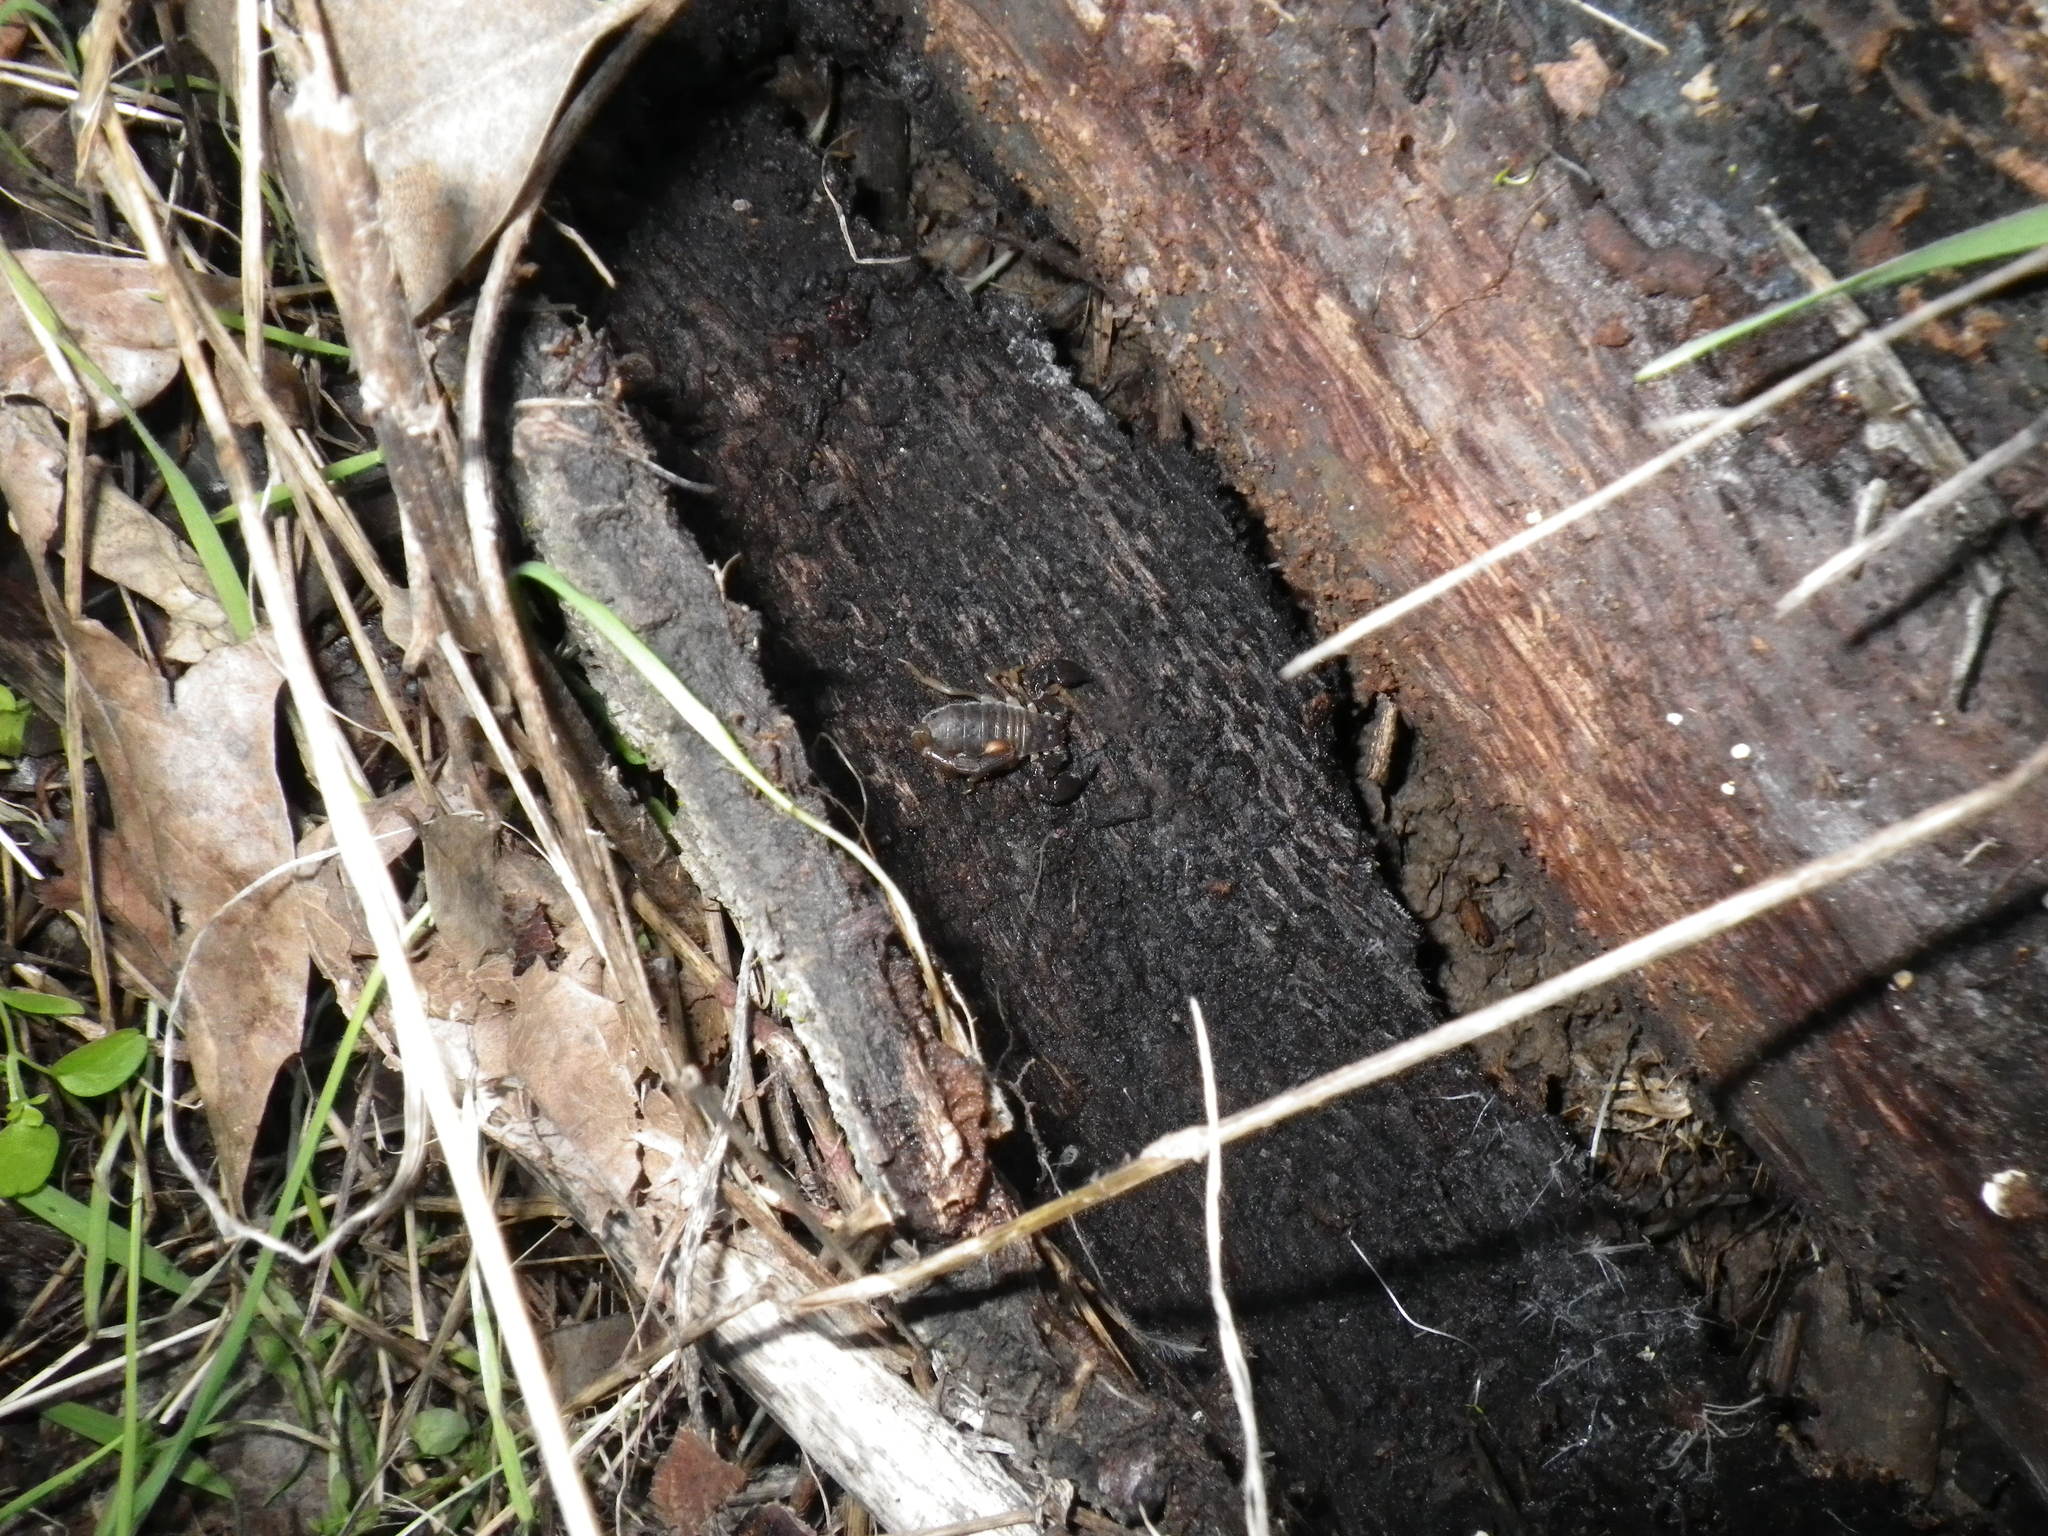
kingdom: Animalia
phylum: Arthropoda
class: Arachnida
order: Scorpiones
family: Chactidae
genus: Uroctonus
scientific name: Uroctonus mordax
